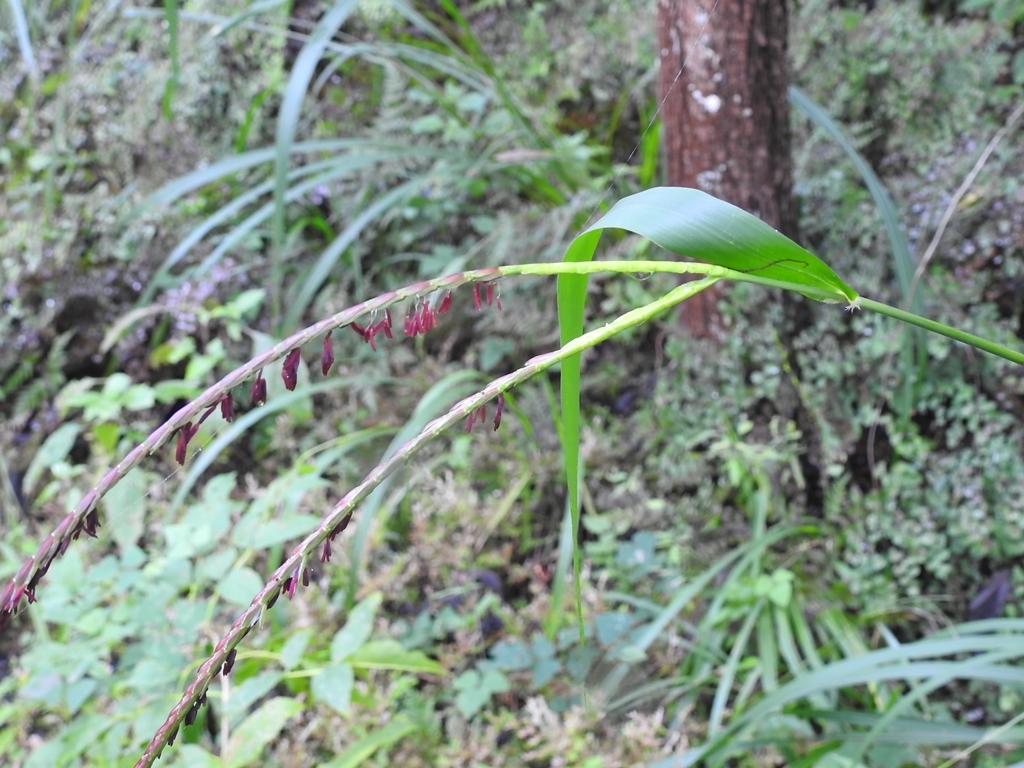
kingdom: Plantae
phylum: Tracheophyta
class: Liliopsida
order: Poales
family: Poaceae
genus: Tripsacum
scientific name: Tripsacum jalapense
